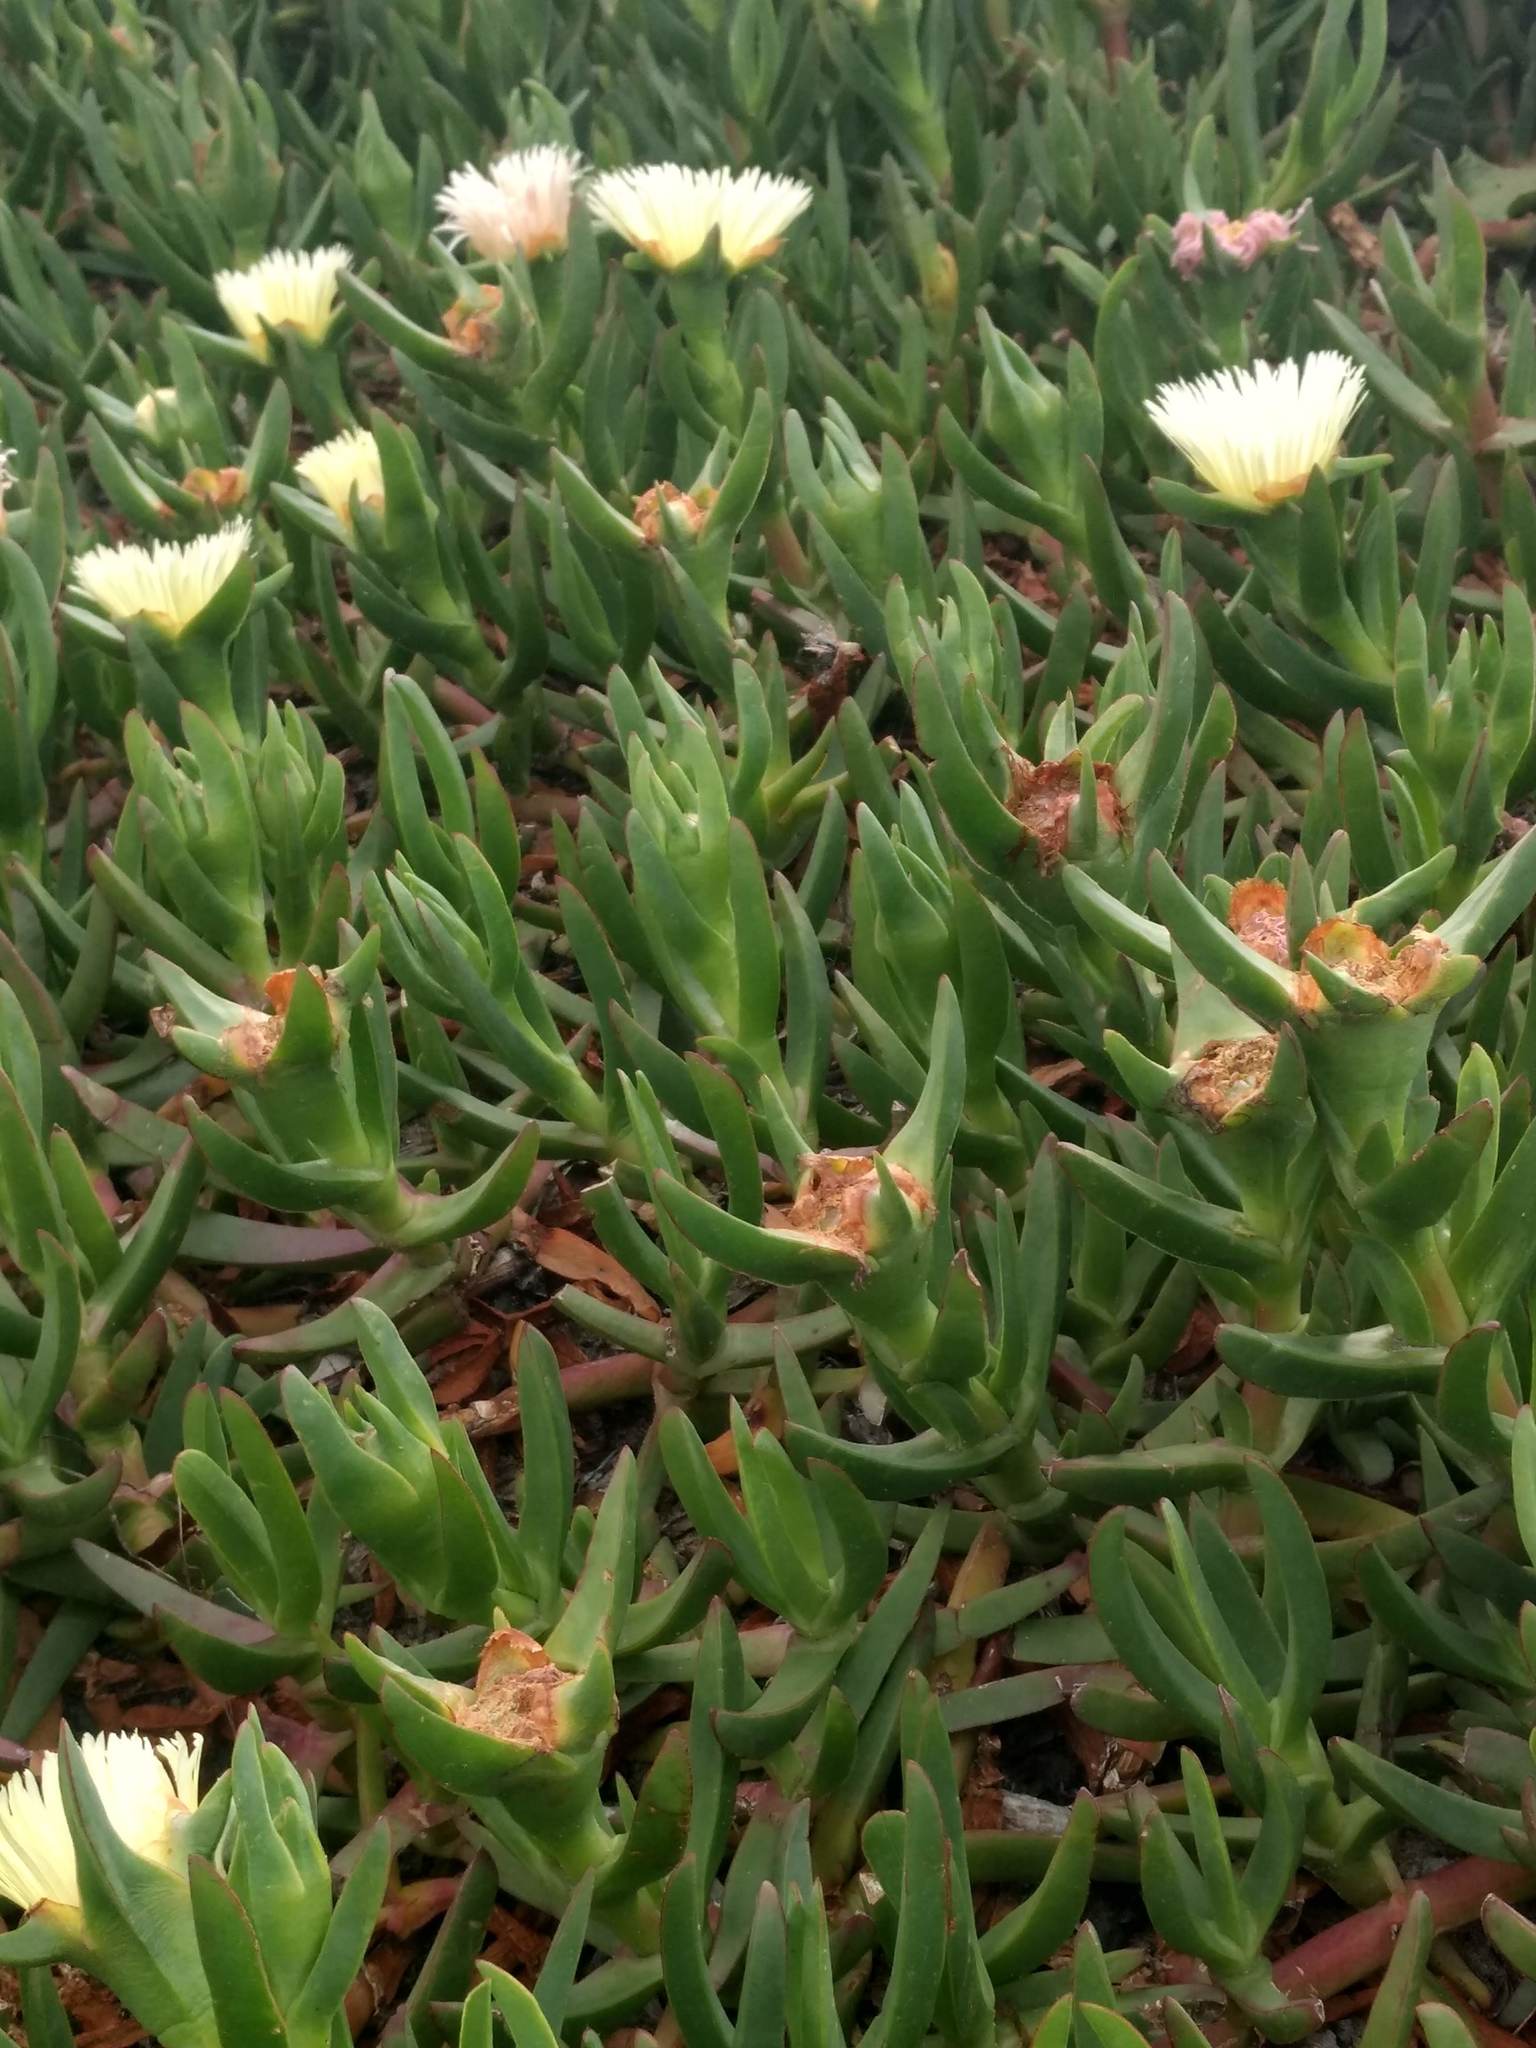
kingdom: Plantae
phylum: Tracheophyta
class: Magnoliopsida
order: Caryophyllales
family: Aizoaceae
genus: Carpobrotus
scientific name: Carpobrotus edulis
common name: Hottentot-fig
